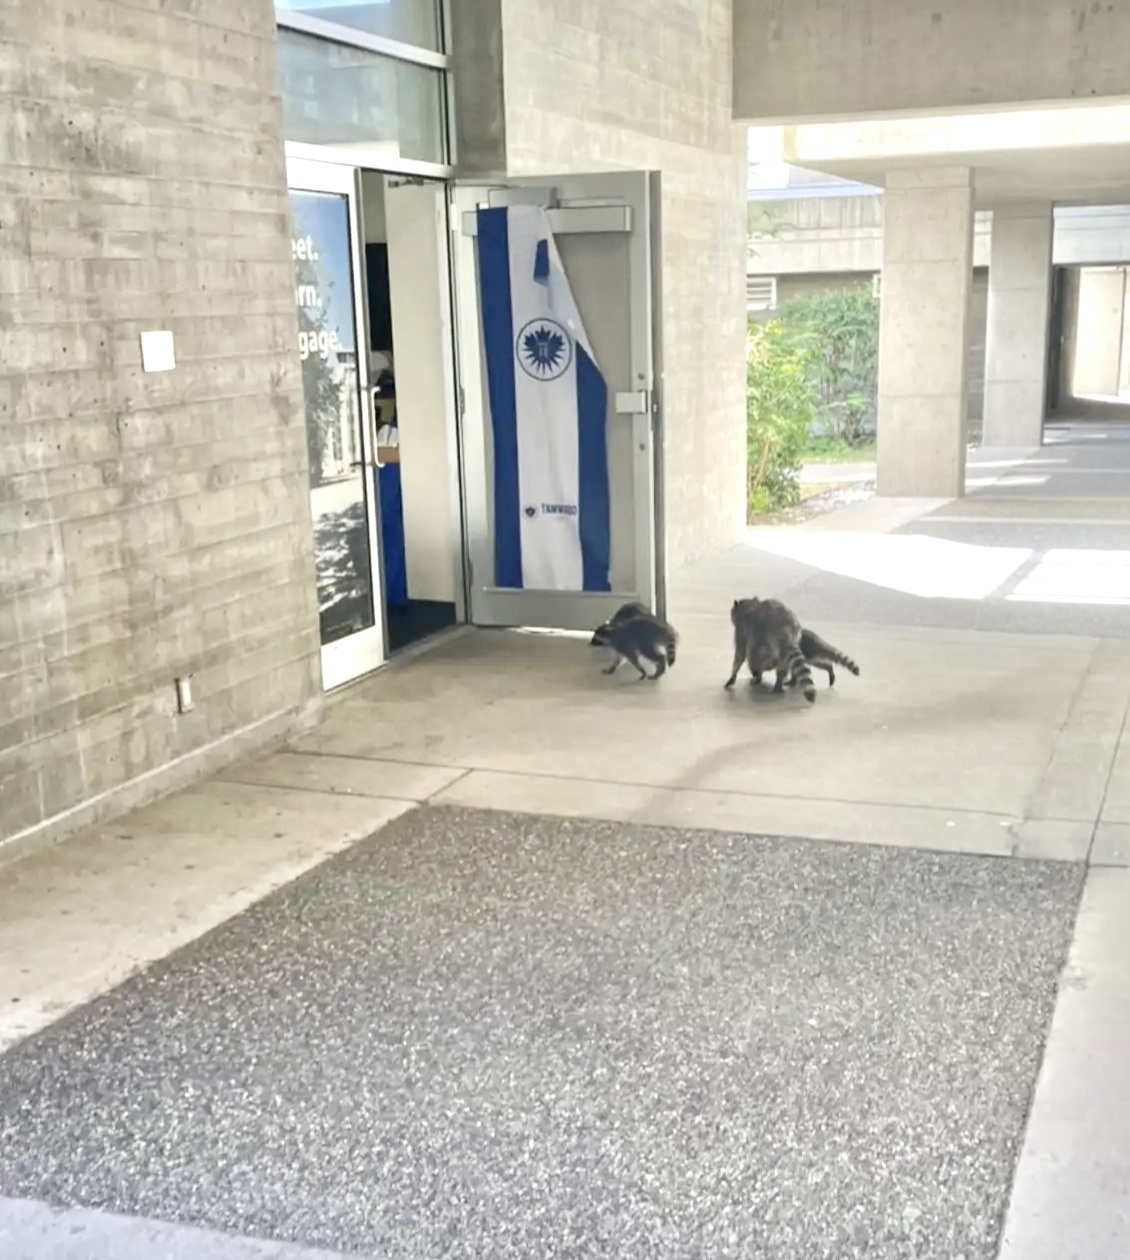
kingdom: Animalia
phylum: Chordata
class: Mammalia
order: Carnivora
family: Procyonidae
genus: Procyon
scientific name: Procyon lotor
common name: Raccoon
